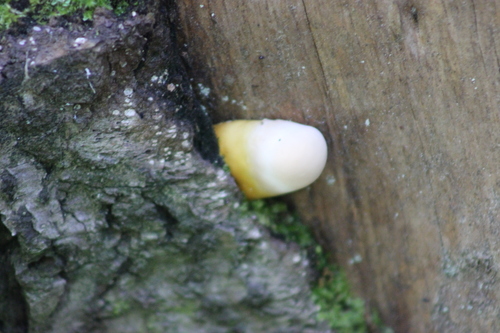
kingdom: Fungi
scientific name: Fungi
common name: Fungi
